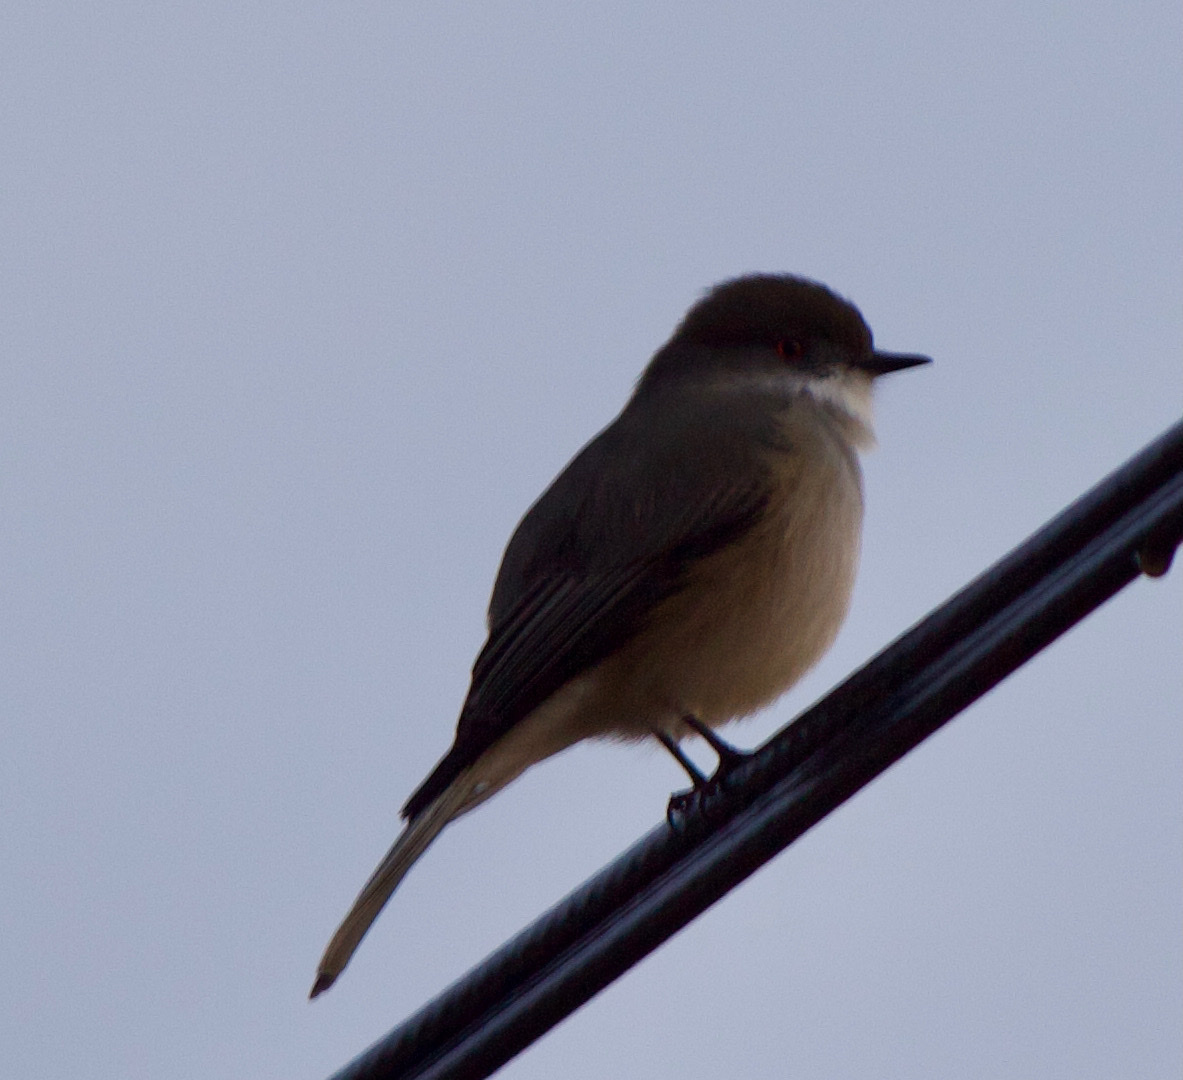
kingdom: Animalia
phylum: Chordata
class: Aves
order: Passeriformes
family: Tyrannidae
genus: Xolmis
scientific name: Xolmis pyrope
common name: Fire-eyed diucon
